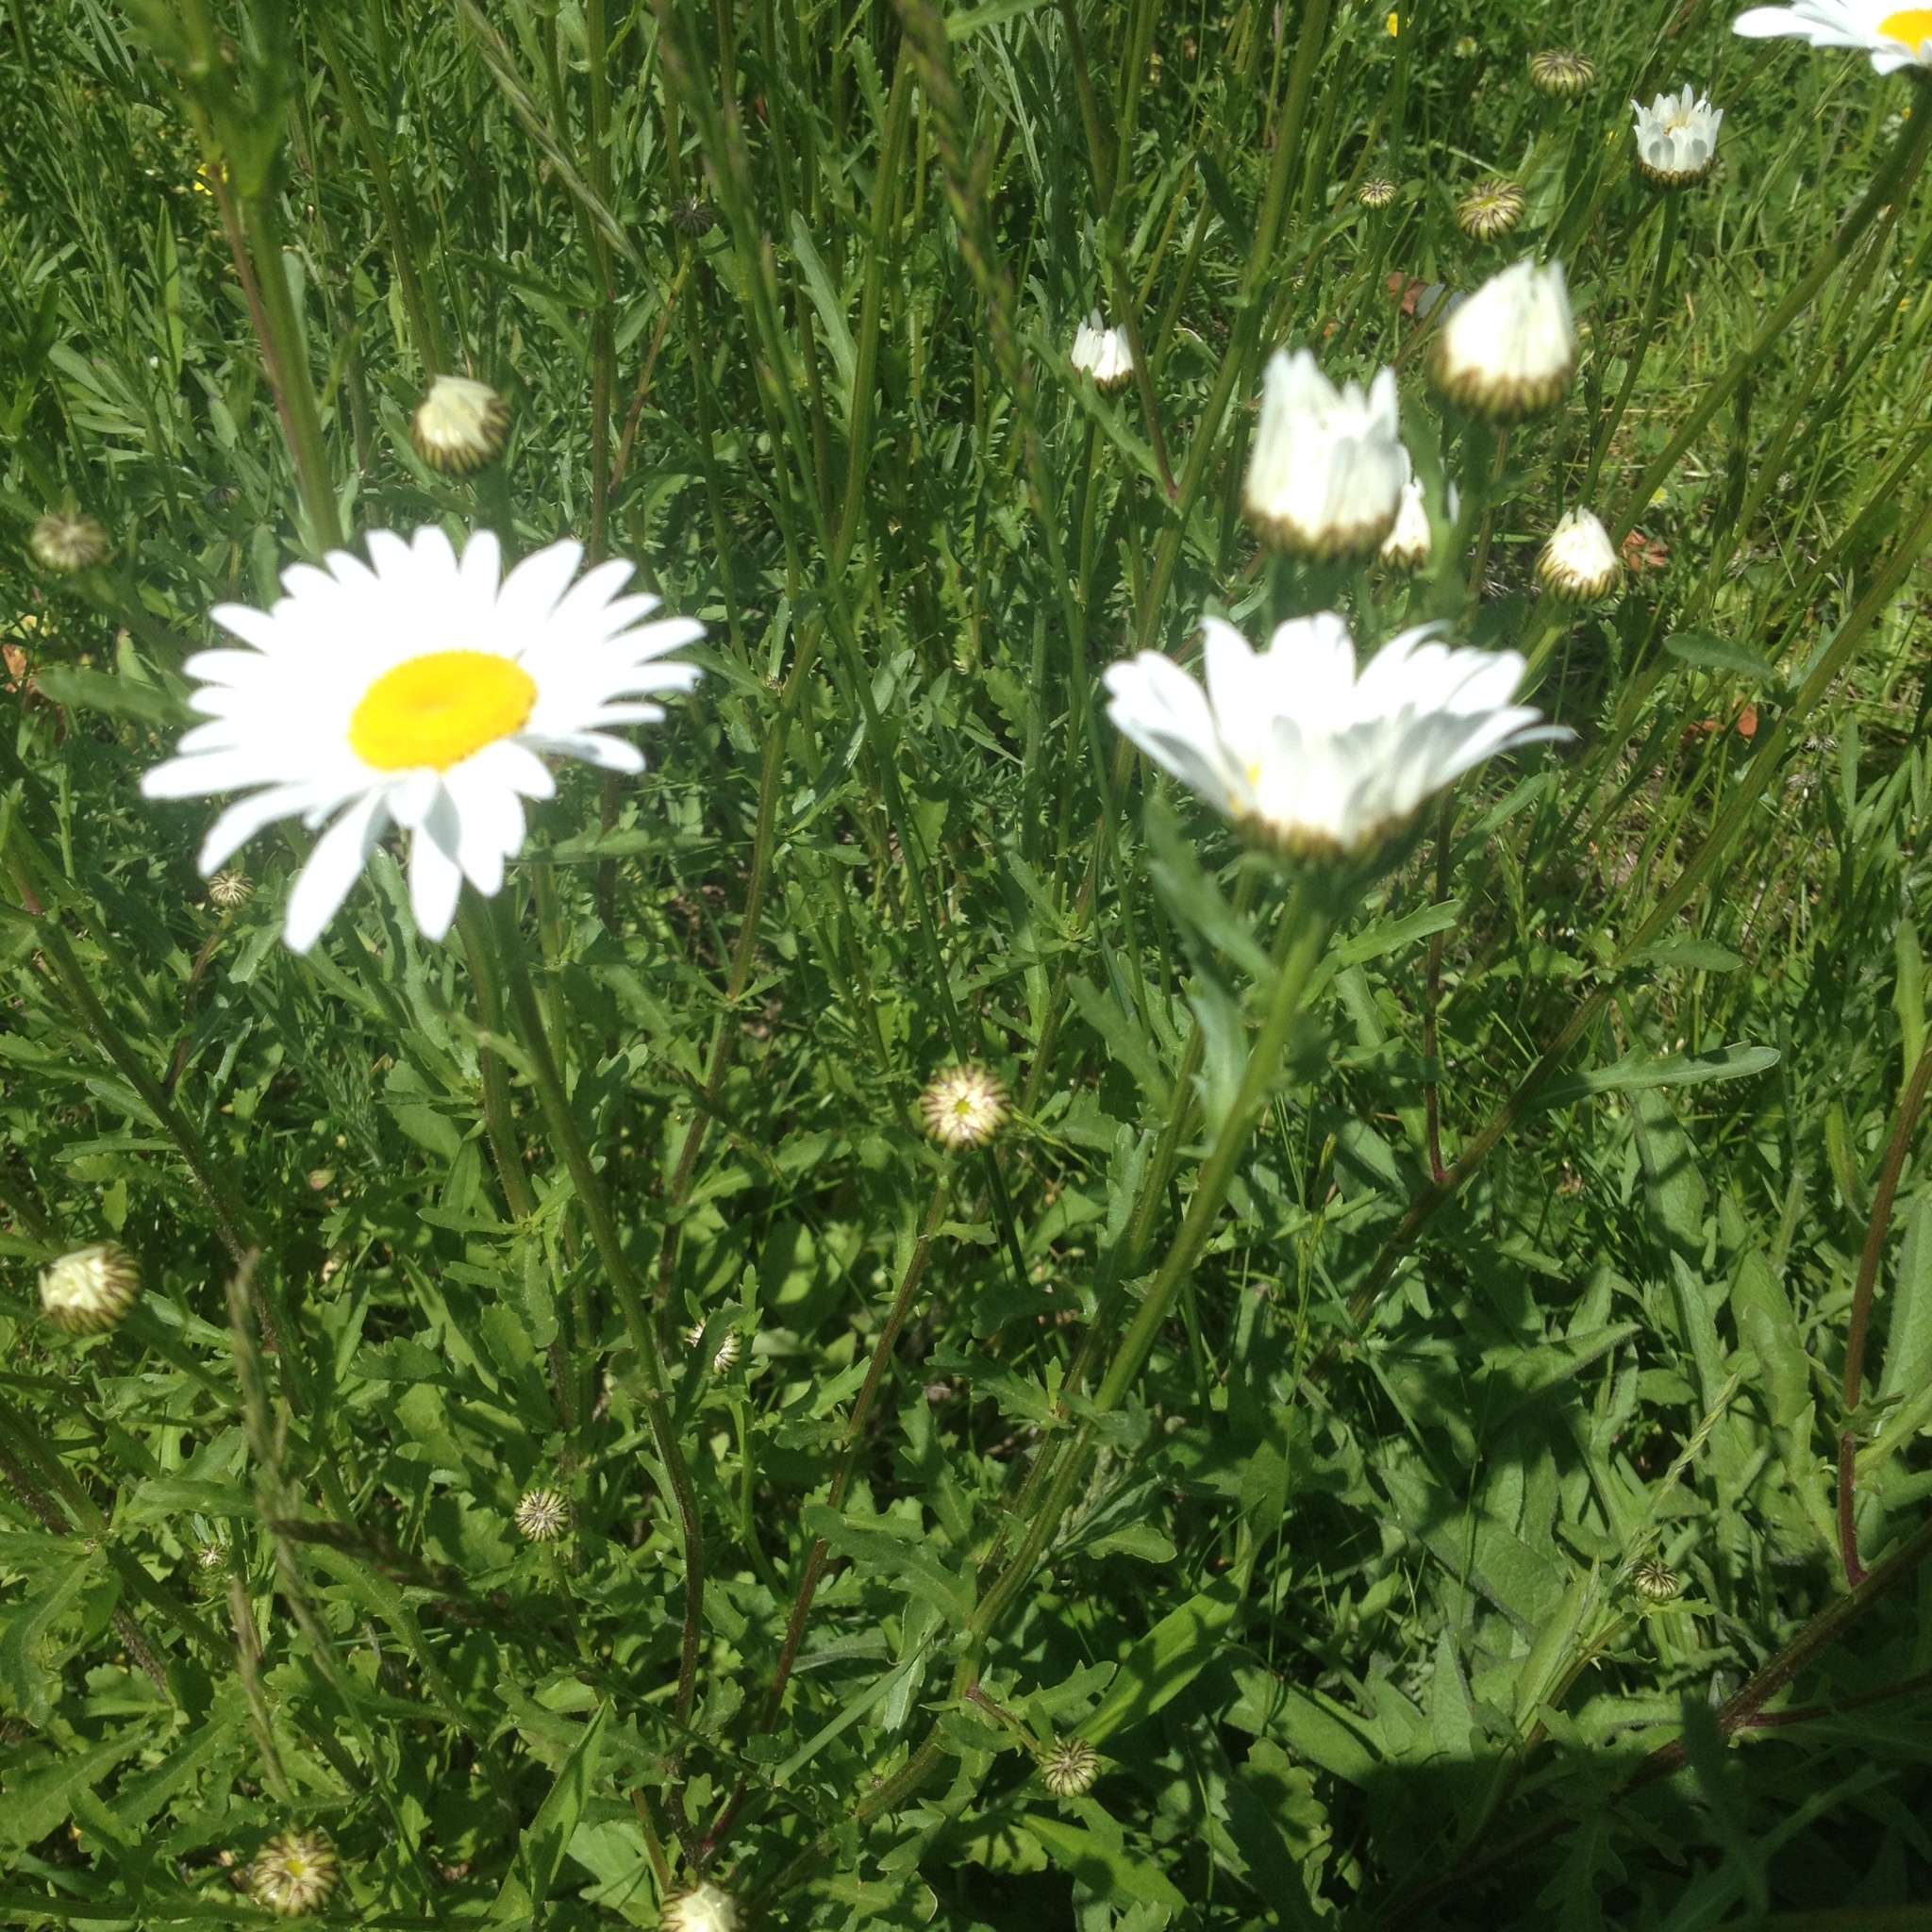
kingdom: Plantae
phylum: Tracheophyta
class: Magnoliopsida
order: Asterales
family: Asteraceae
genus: Leucanthemum
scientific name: Leucanthemum vulgare
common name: Oxeye daisy
